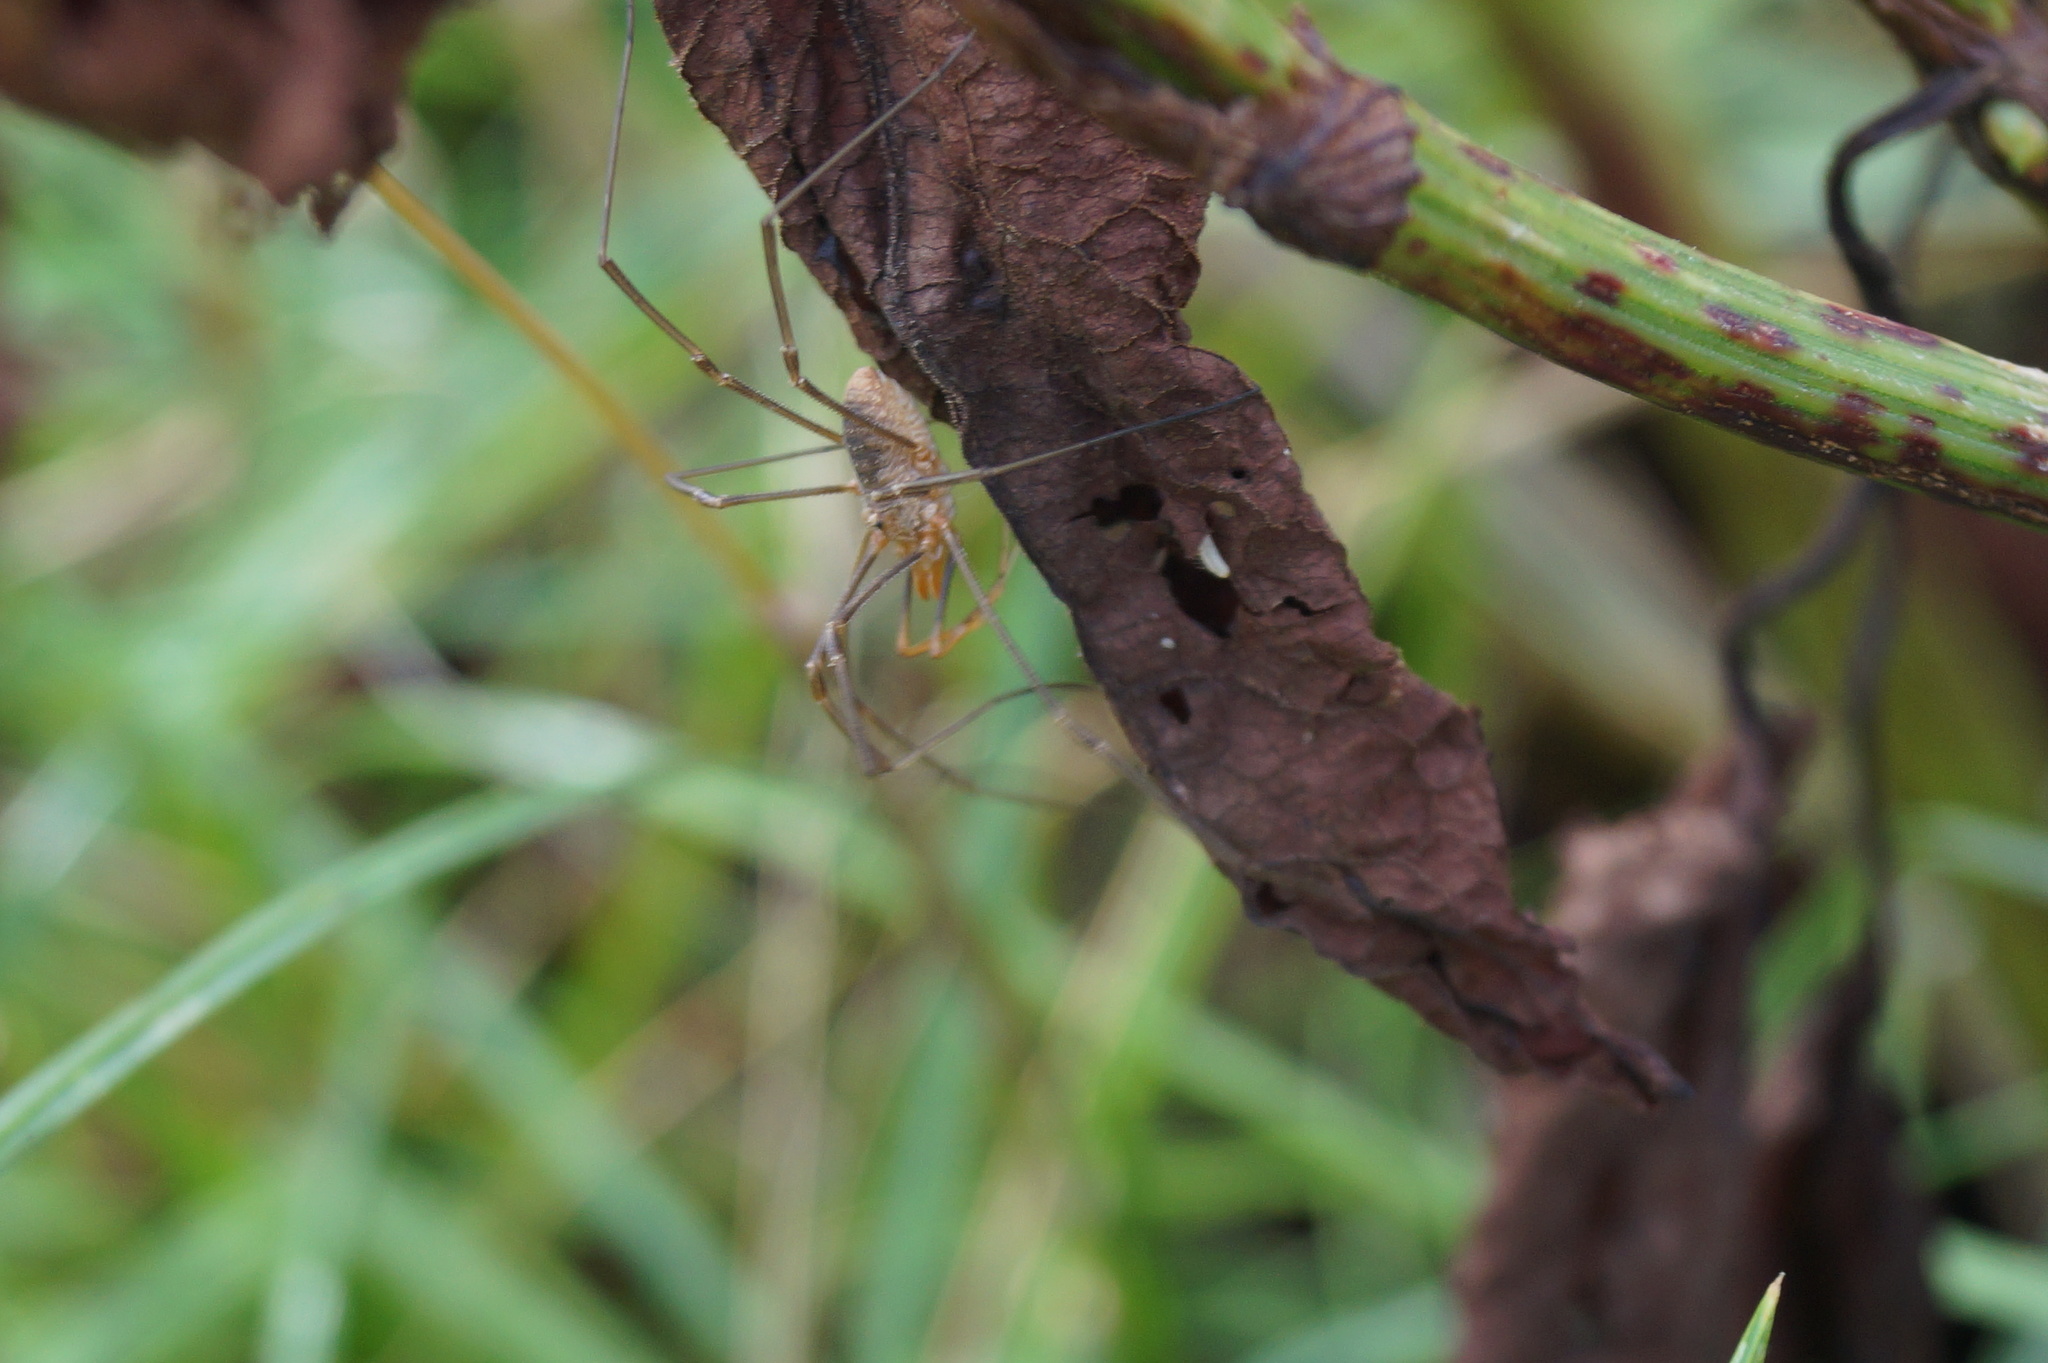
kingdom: Animalia
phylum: Arthropoda
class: Arachnida
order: Opiliones
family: Phalangiidae
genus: Phalangium
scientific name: Phalangium opilio
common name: Daddy longleg
